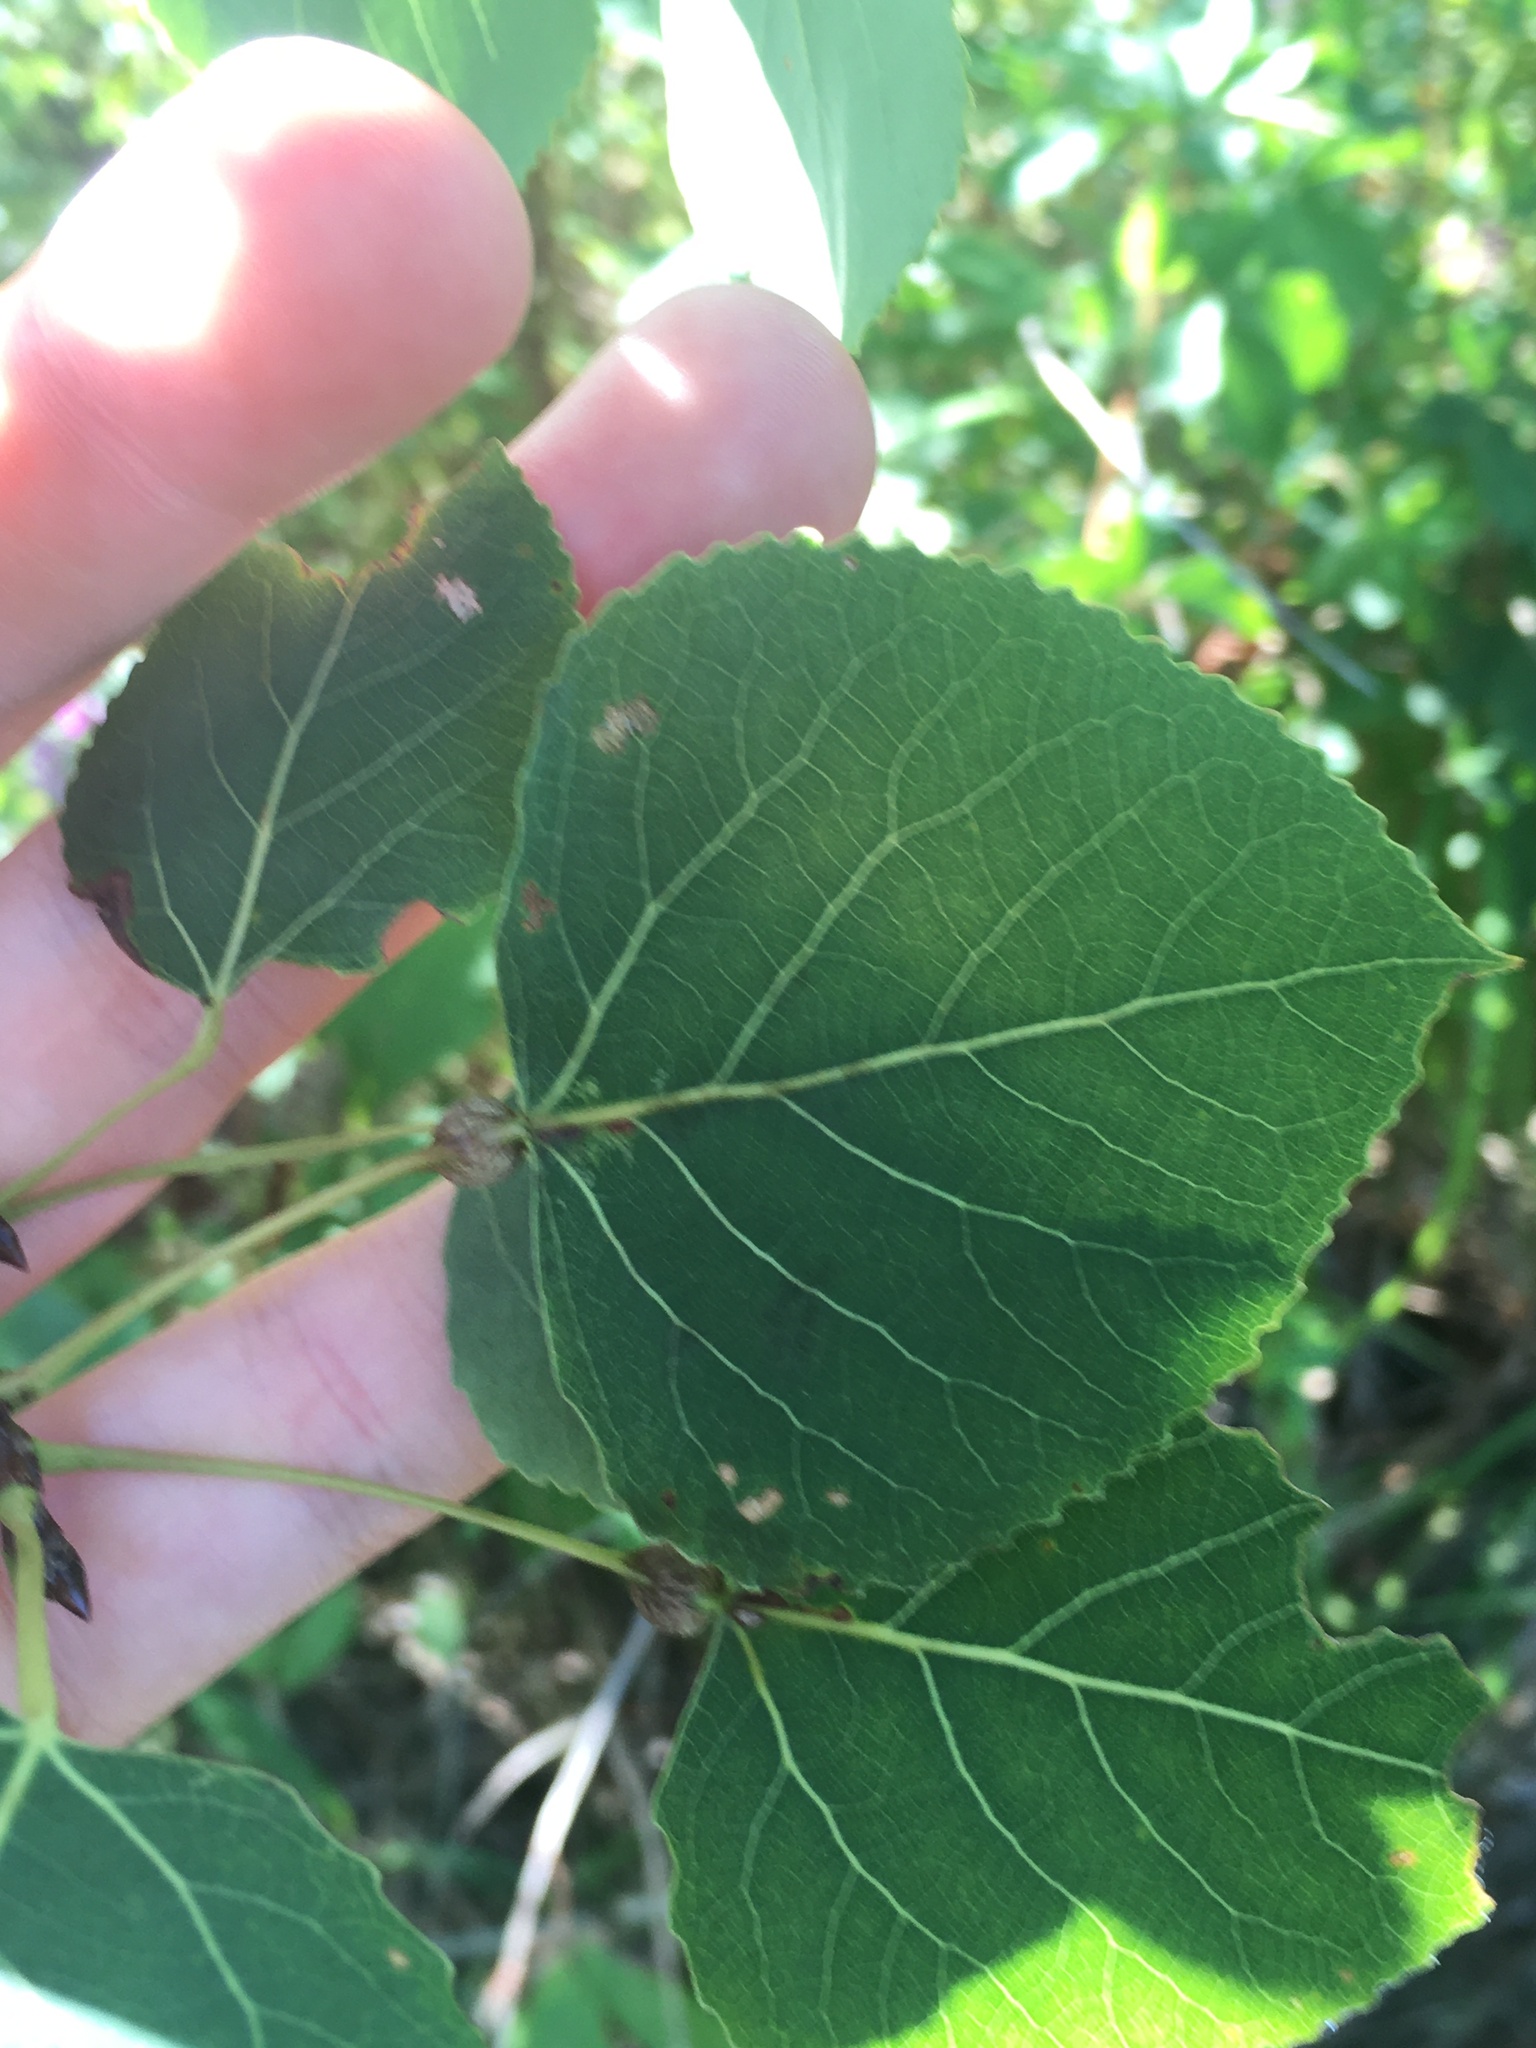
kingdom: Animalia
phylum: Arthropoda
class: Insecta
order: Lepidoptera
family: Nepticulidae
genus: Ectoedemia
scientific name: Ectoedemia populella
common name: Aspen petiole gall moth
